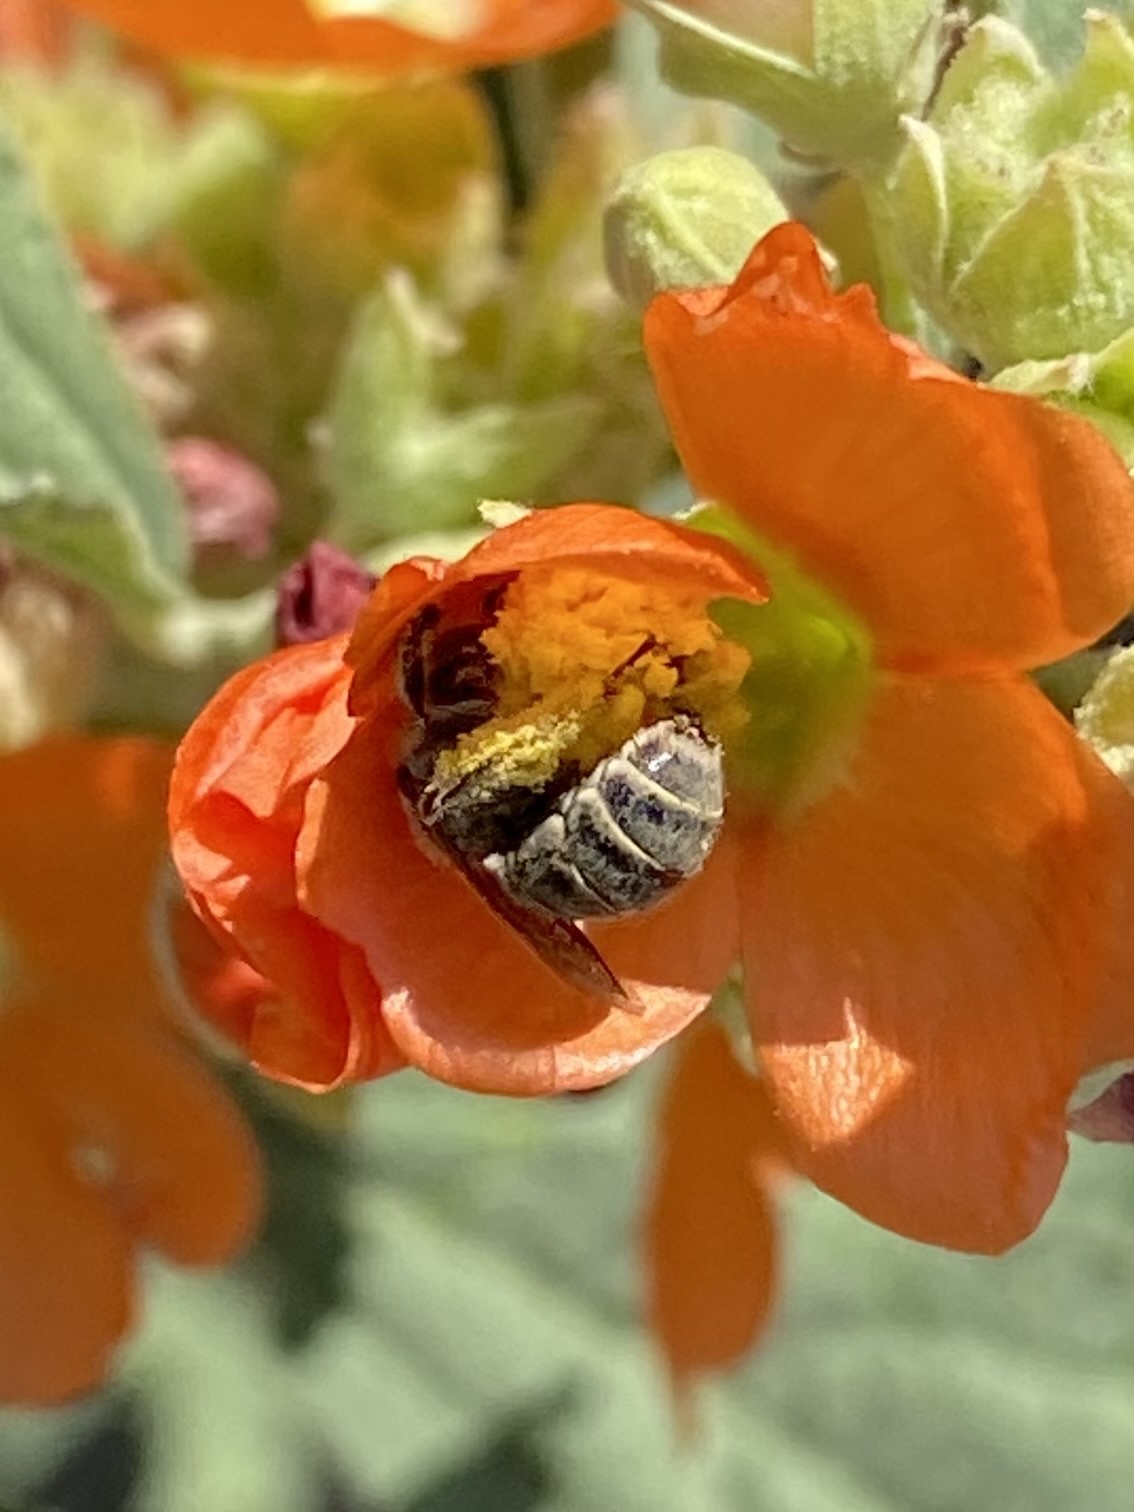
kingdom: Animalia
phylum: Arthropoda
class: Insecta
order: Hymenoptera
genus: Coquillettapis
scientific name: Coquillettapis
